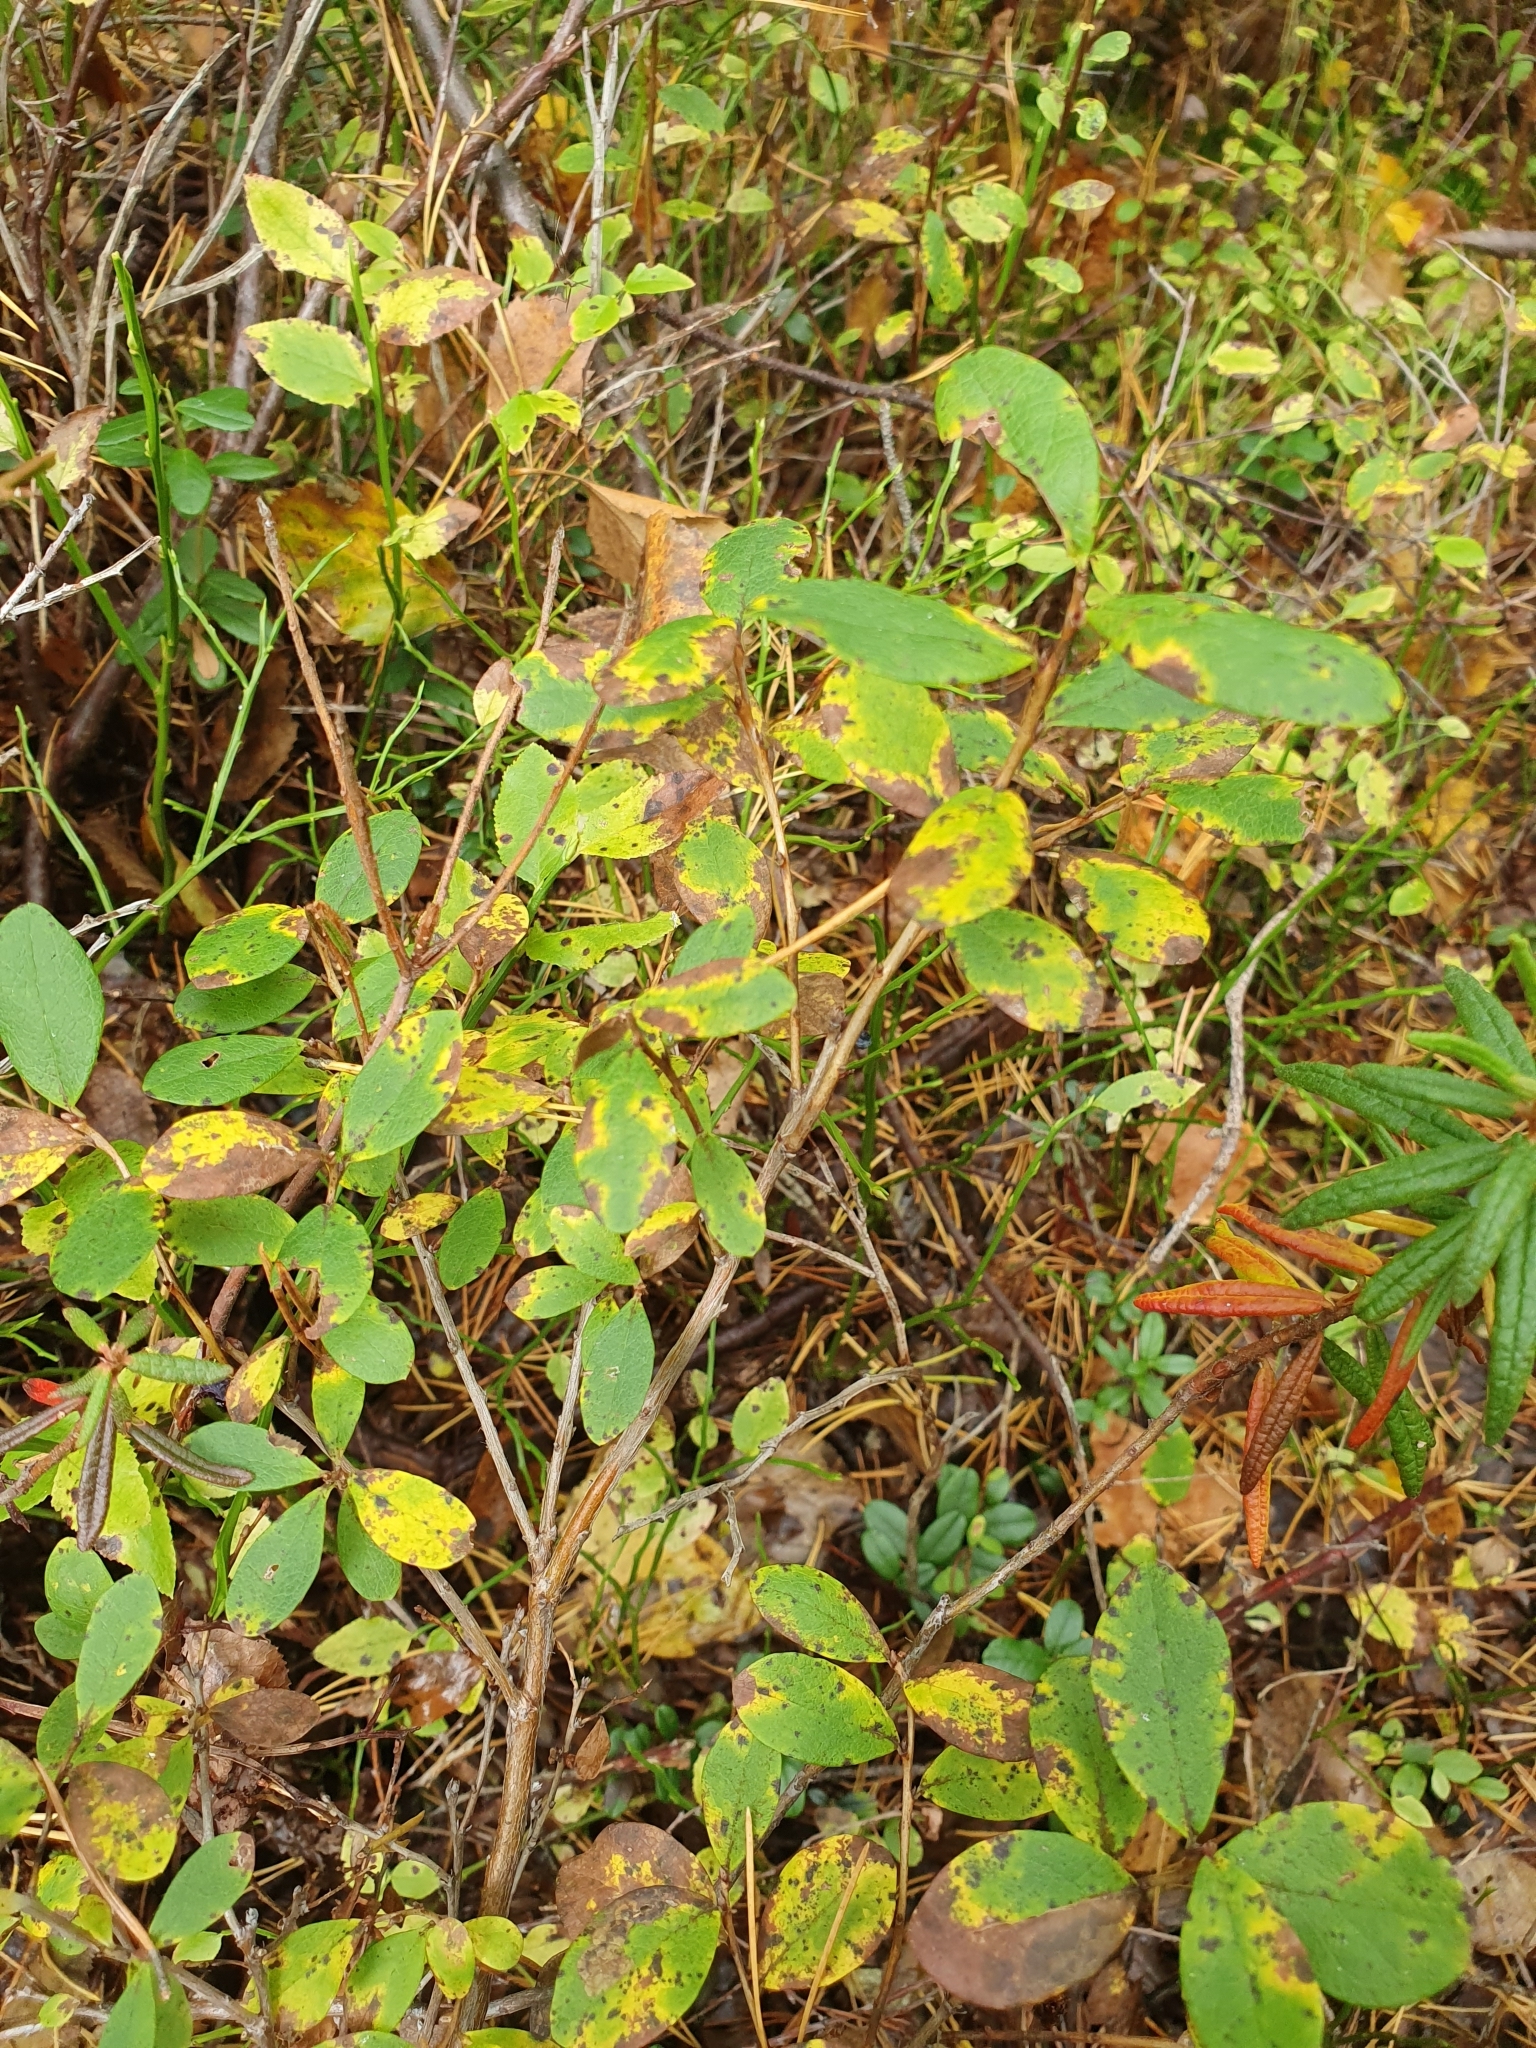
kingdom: Plantae
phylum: Tracheophyta
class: Magnoliopsida
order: Ericales
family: Ericaceae
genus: Vaccinium
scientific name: Vaccinium uliginosum
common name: Bog bilberry
